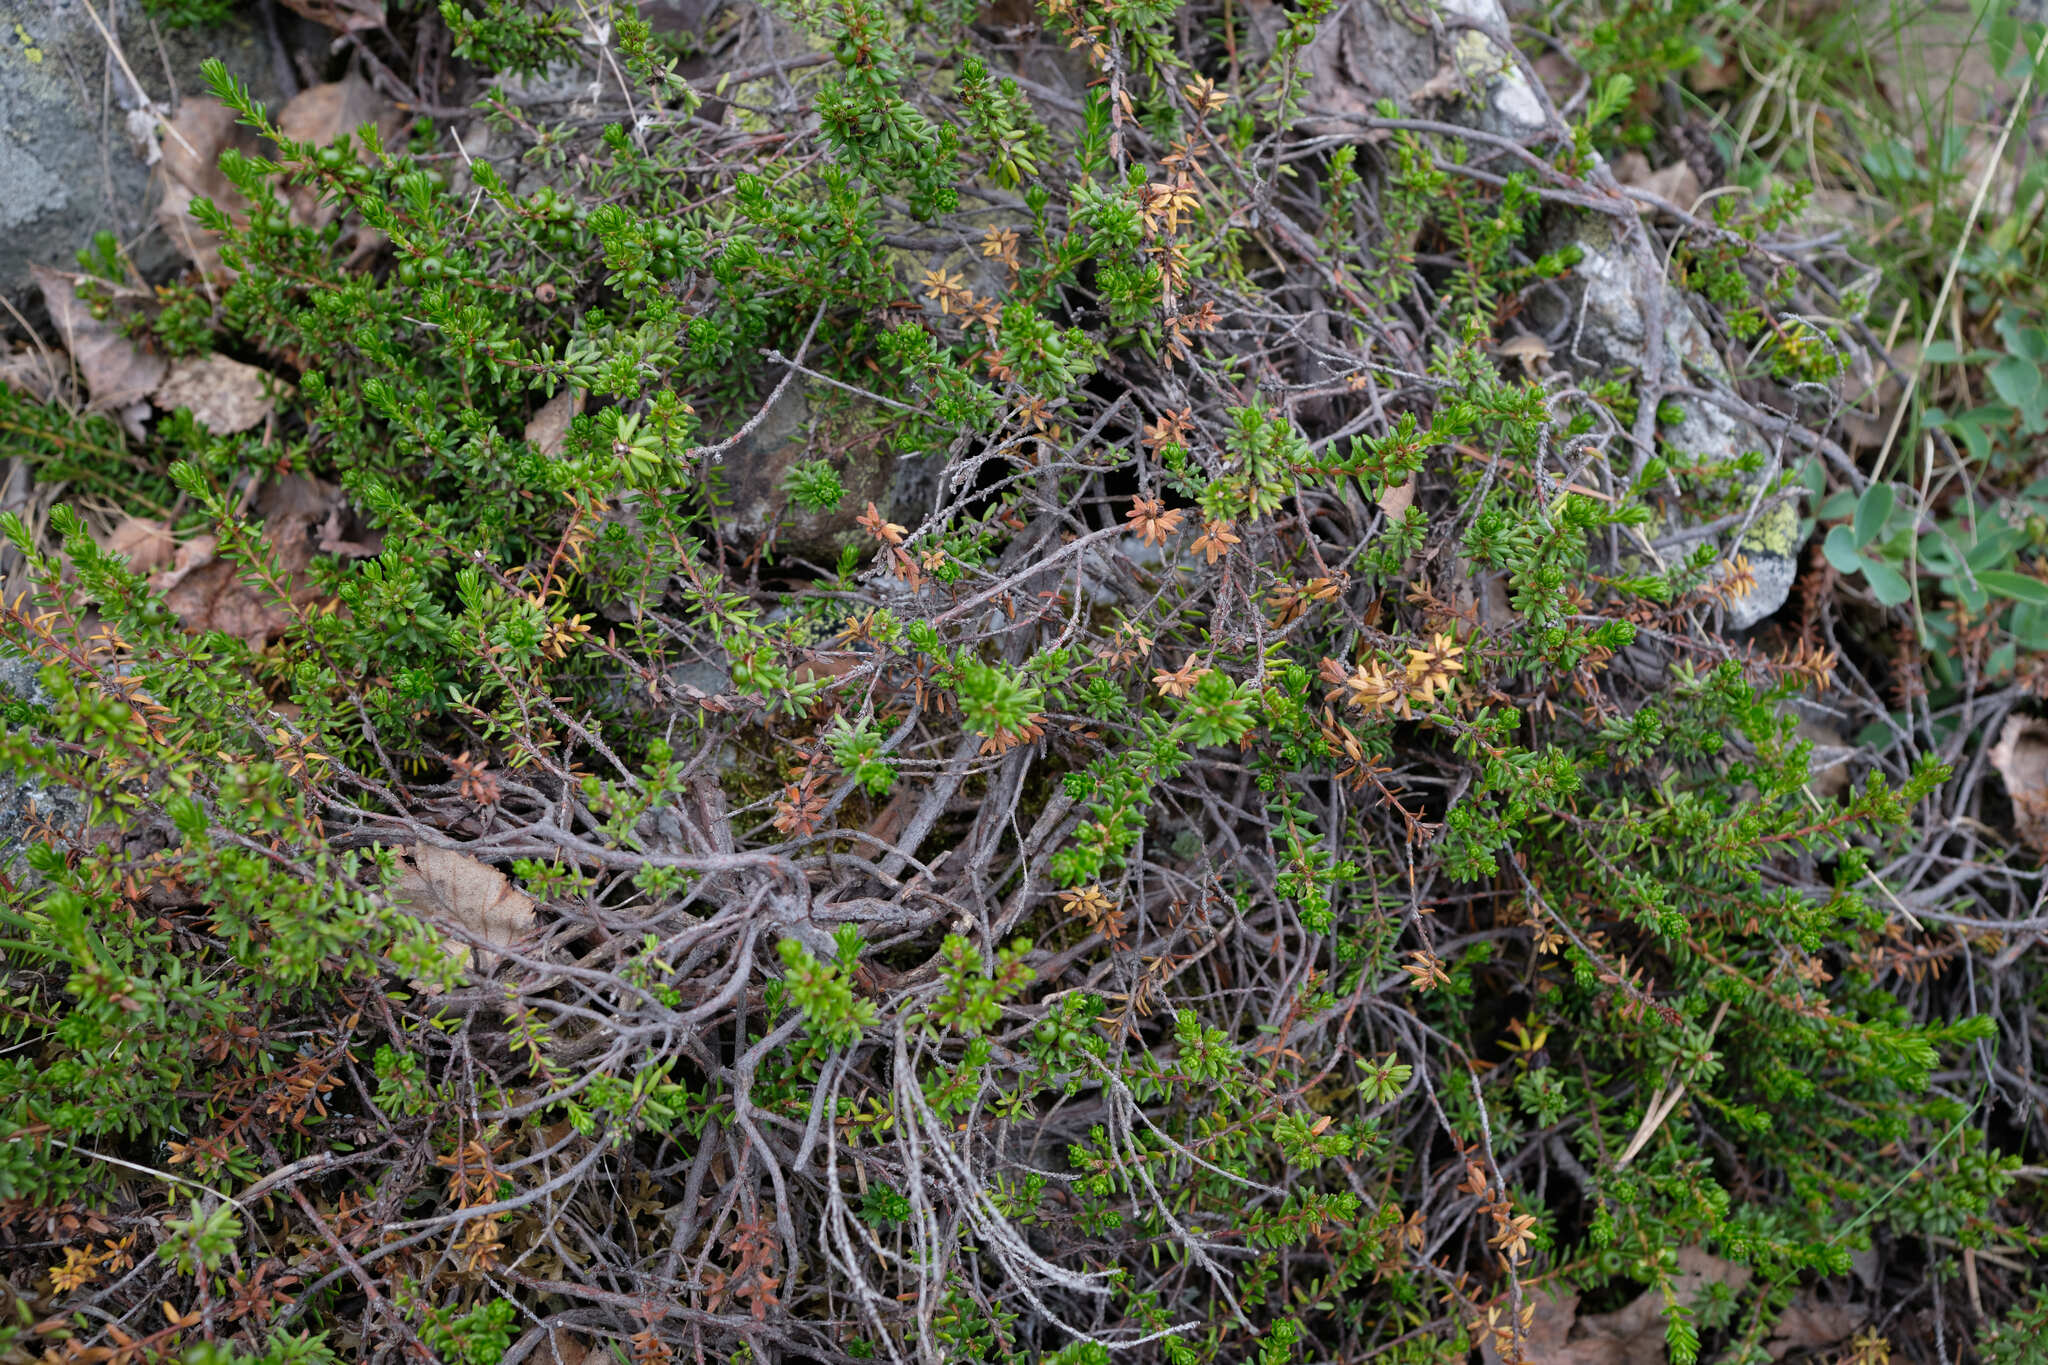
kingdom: Plantae
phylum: Tracheophyta
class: Magnoliopsida
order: Ericales
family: Ericaceae
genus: Empetrum
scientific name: Empetrum nigrum
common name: Black crowberry
